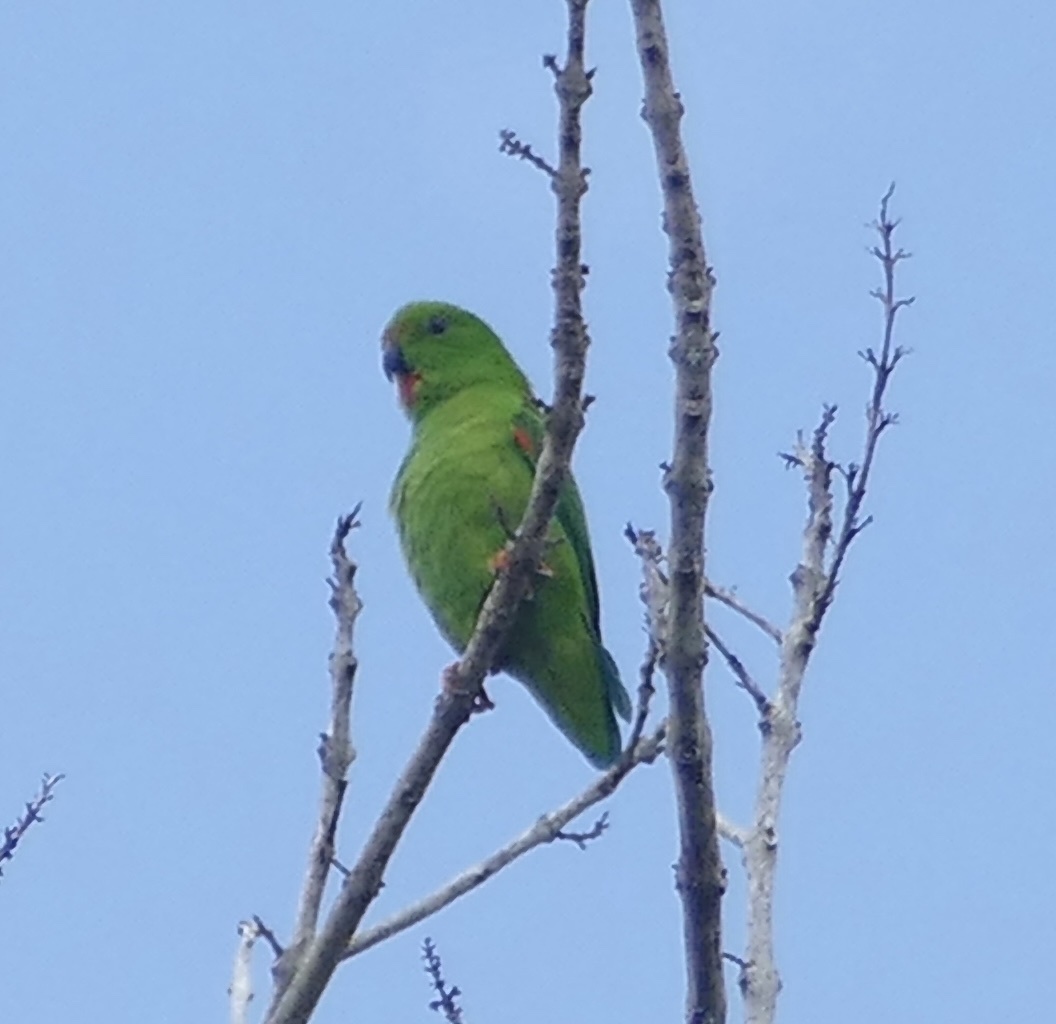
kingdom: Animalia
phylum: Chordata
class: Aves
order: Psittaciformes
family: Psittacidae
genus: Loriculus
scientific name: Loriculus stigmatus
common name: Great hanging parrot
